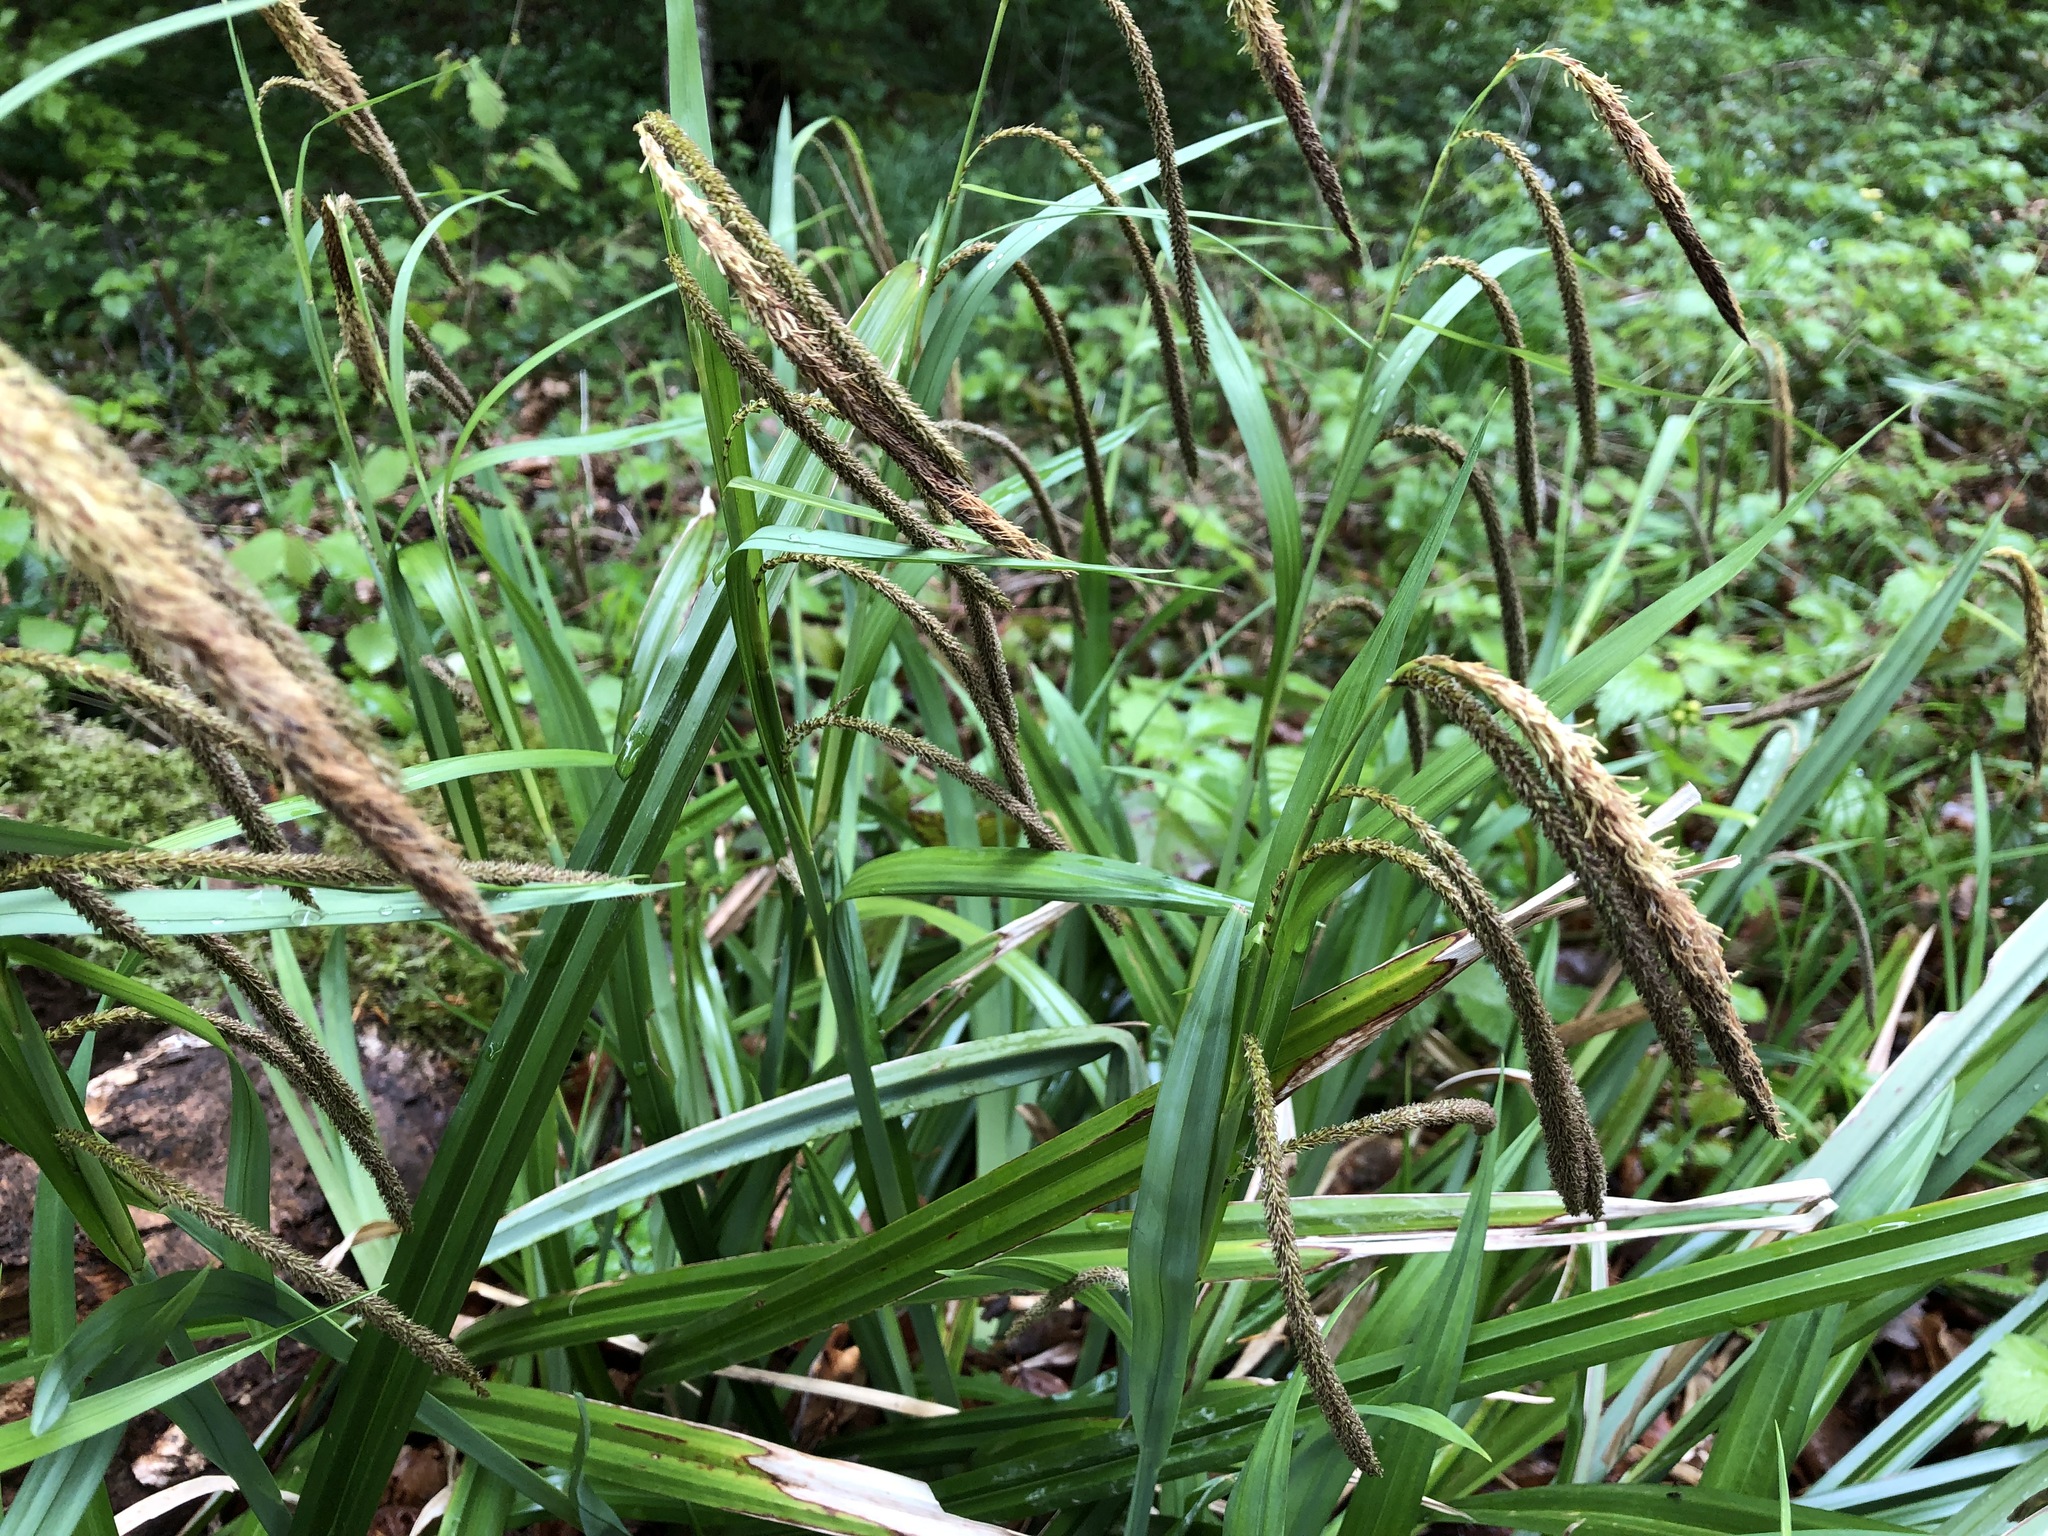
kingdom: Plantae
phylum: Tracheophyta
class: Liliopsida
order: Poales
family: Cyperaceae
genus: Carex
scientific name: Carex pendula
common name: Pendulous sedge
